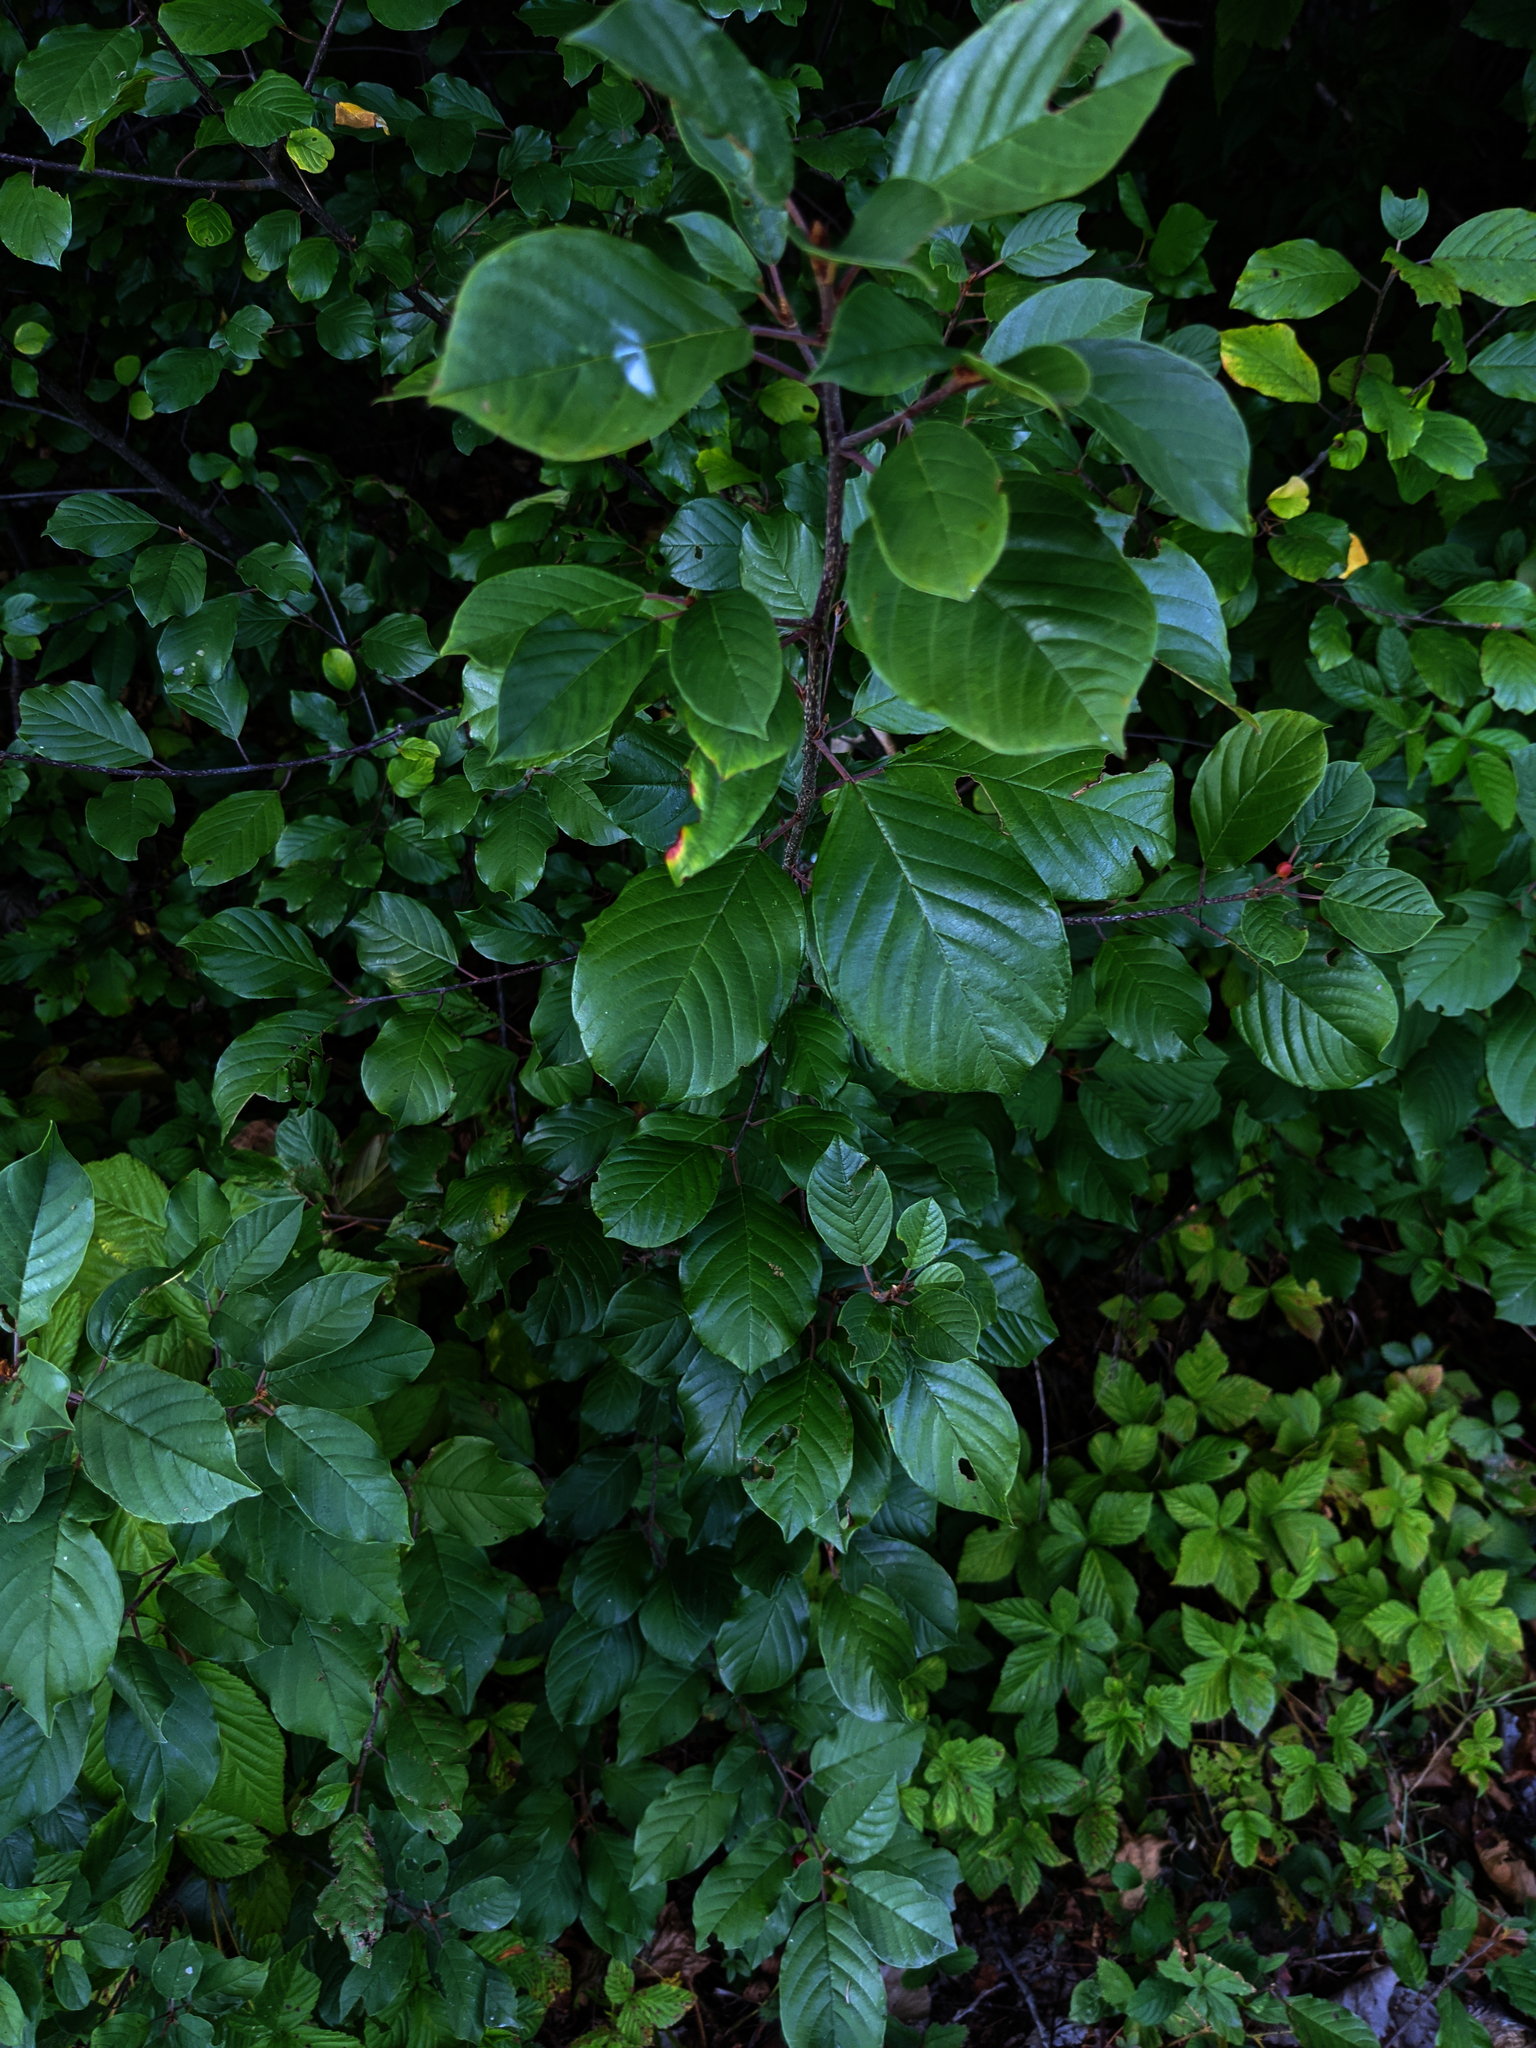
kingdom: Plantae
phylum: Tracheophyta
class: Magnoliopsida
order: Rosales
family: Rhamnaceae
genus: Frangula
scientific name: Frangula alnus
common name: Alder buckthorn
